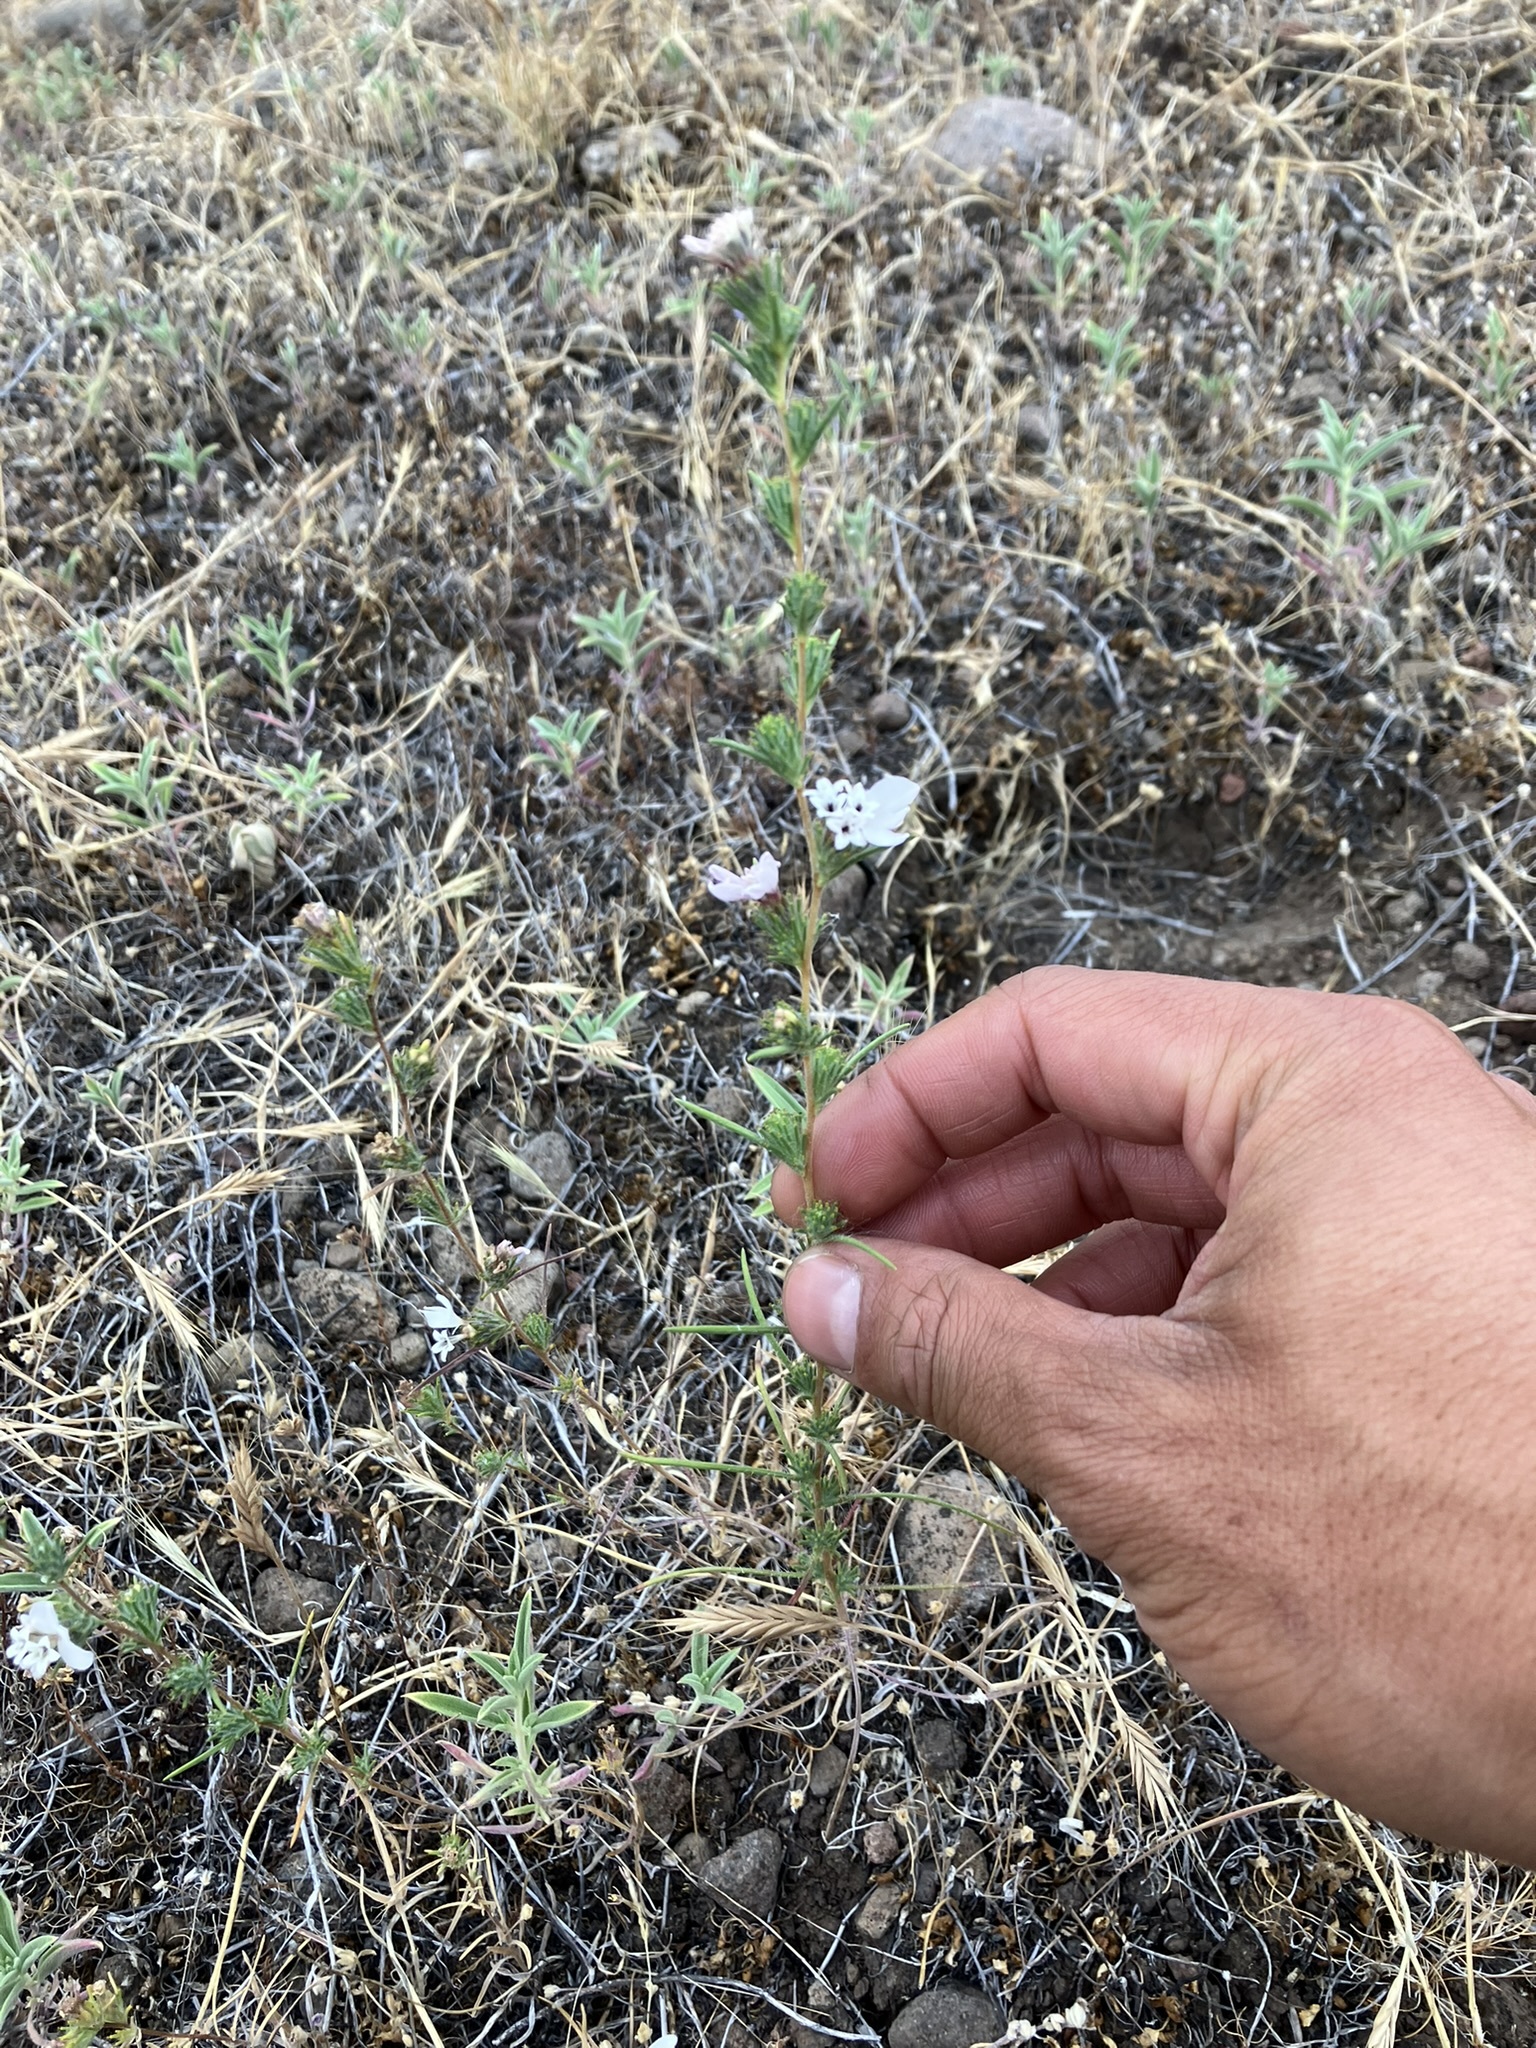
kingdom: Plantae
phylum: Tracheophyta
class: Magnoliopsida
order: Asterales
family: Asteraceae
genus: Calycadenia
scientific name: Calycadenia multiglandulosa
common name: Sticky calycadenia
